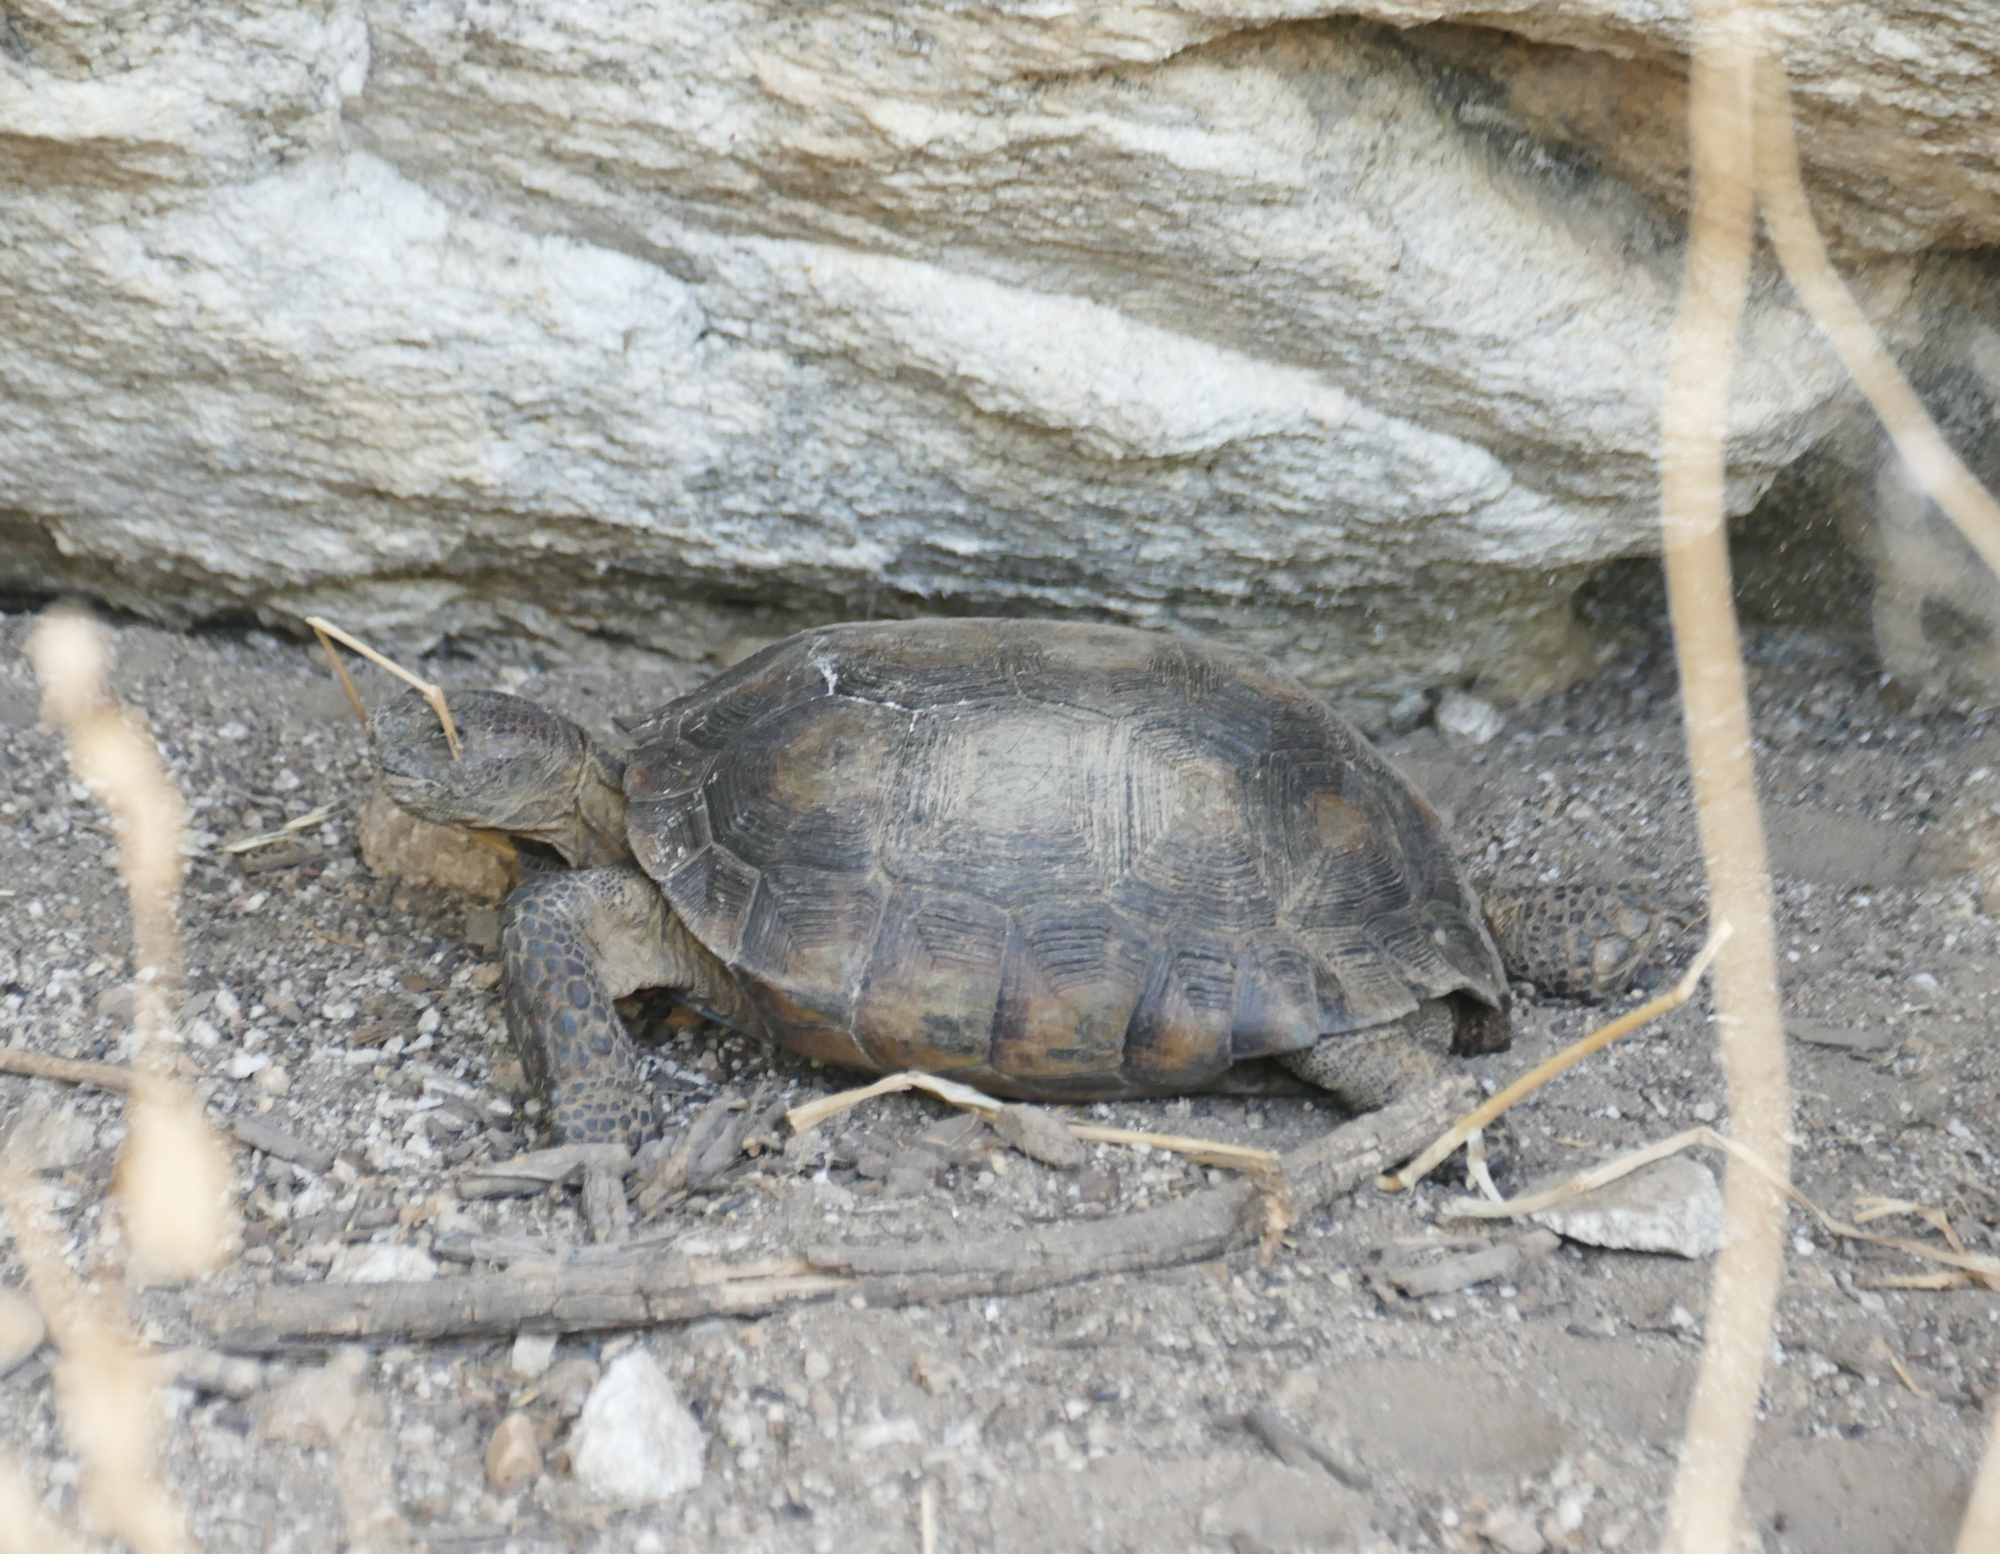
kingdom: Animalia
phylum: Chordata
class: Testudines
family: Testudinidae
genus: Gopherus
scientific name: Gopherus morafkai
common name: Sonoran desert tortoise
